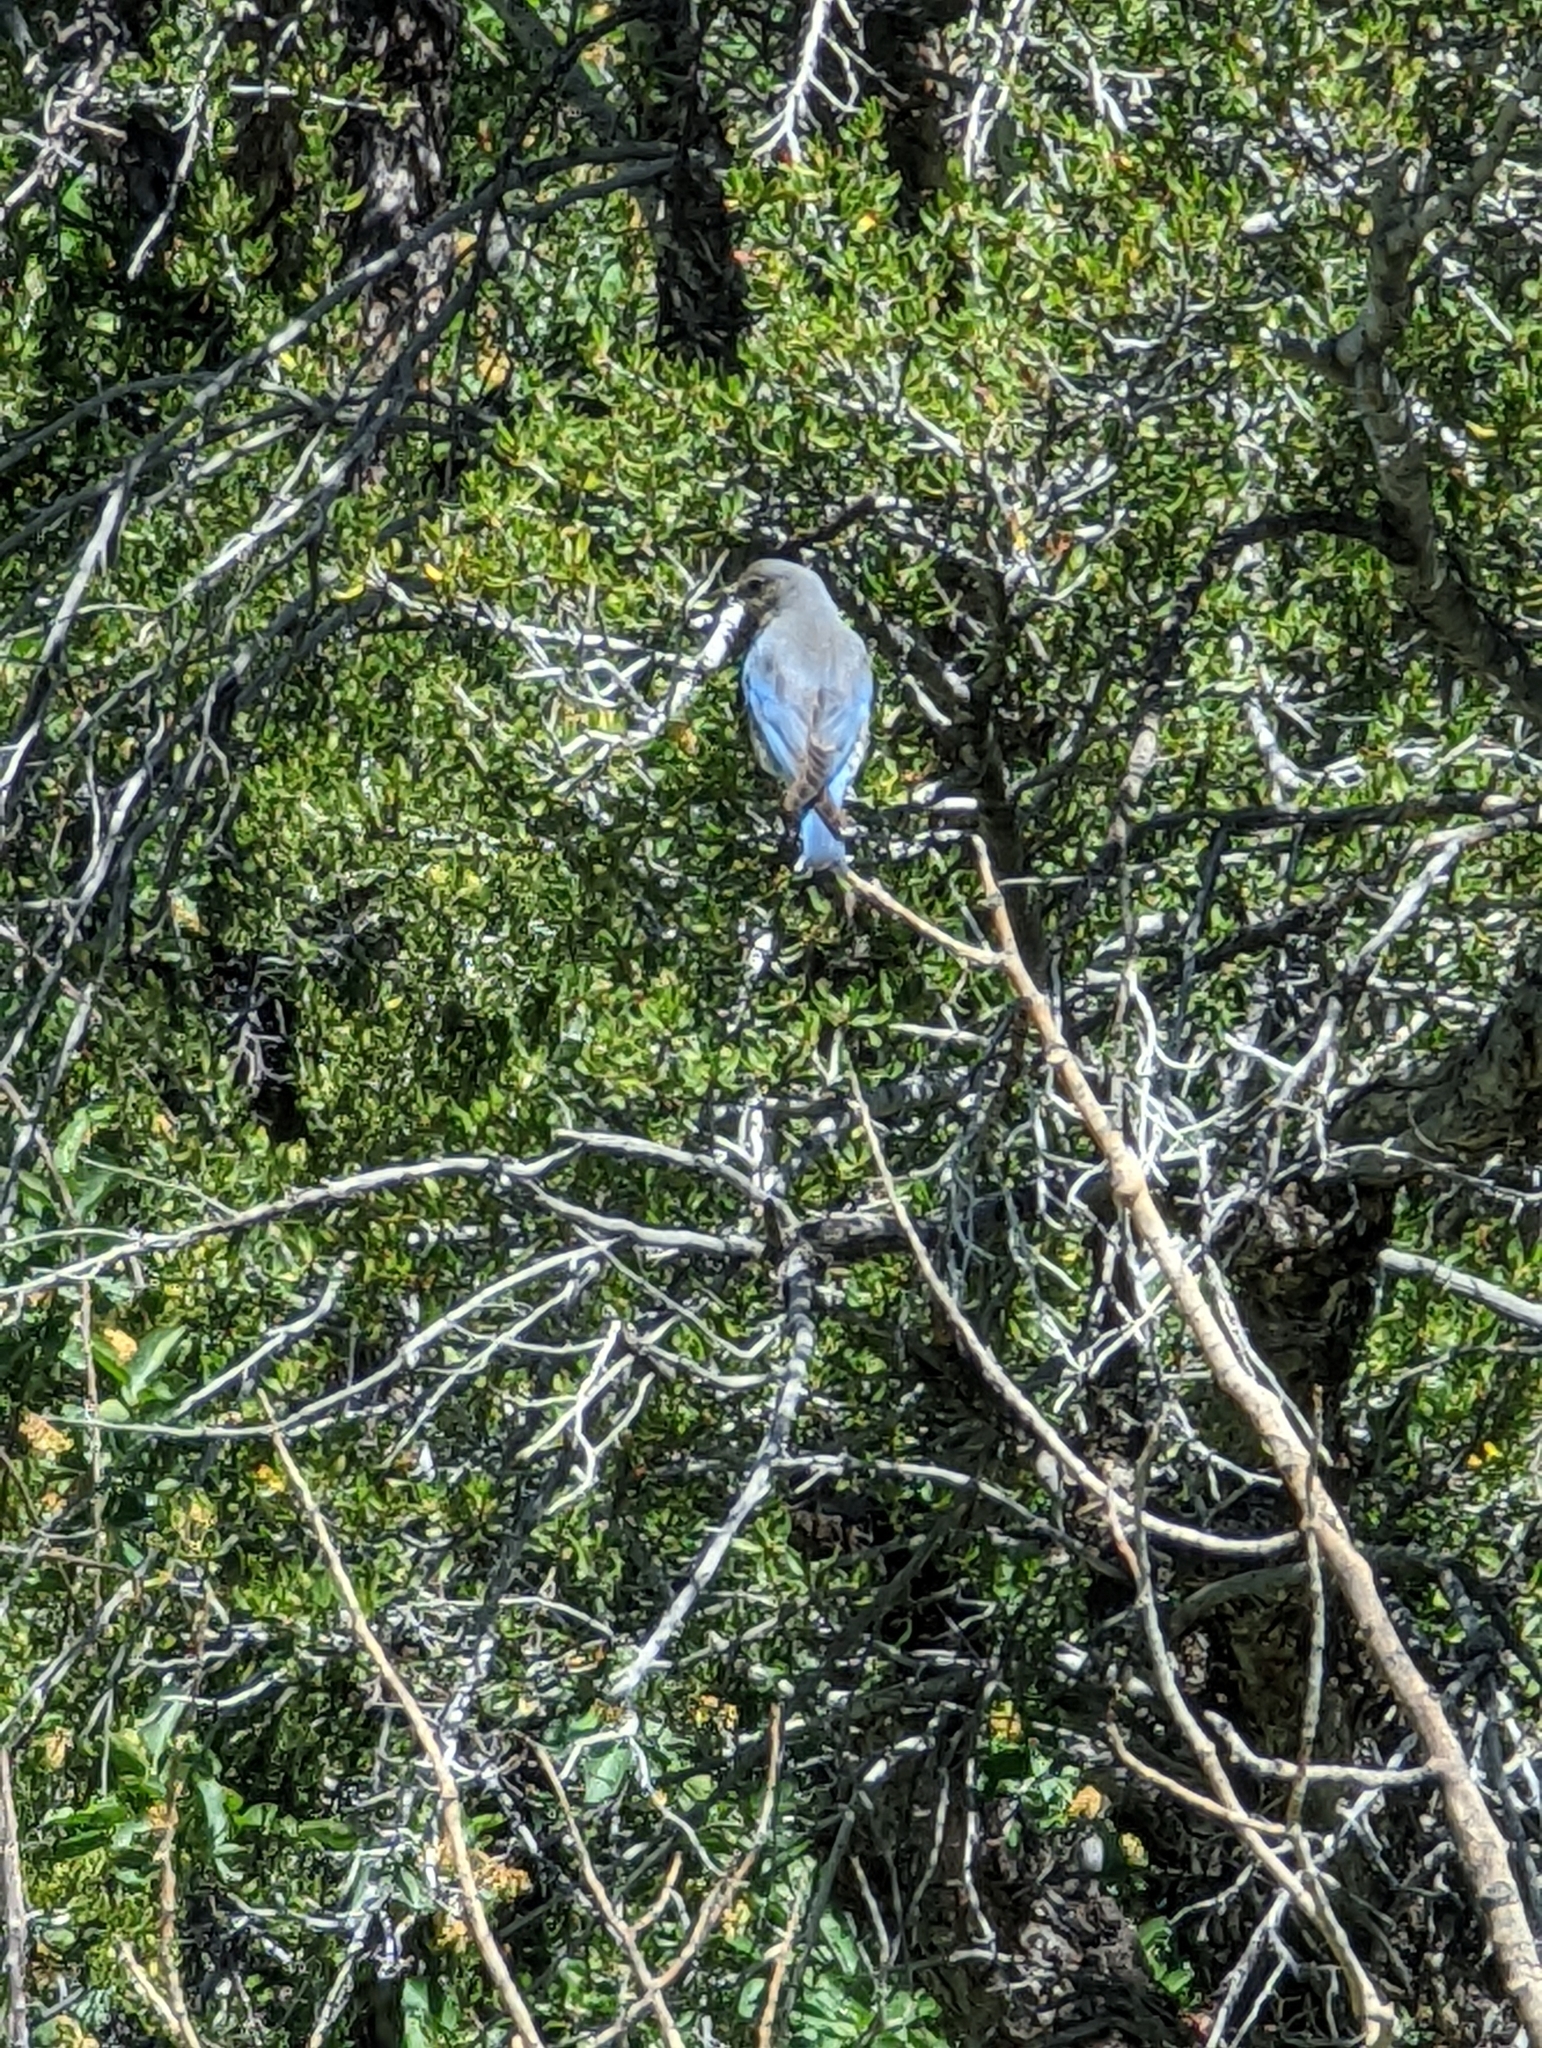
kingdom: Animalia
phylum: Chordata
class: Aves
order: Passeriformes
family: Turdidae
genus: Sialia
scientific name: Sialia currucoides
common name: Mountain bluebird
